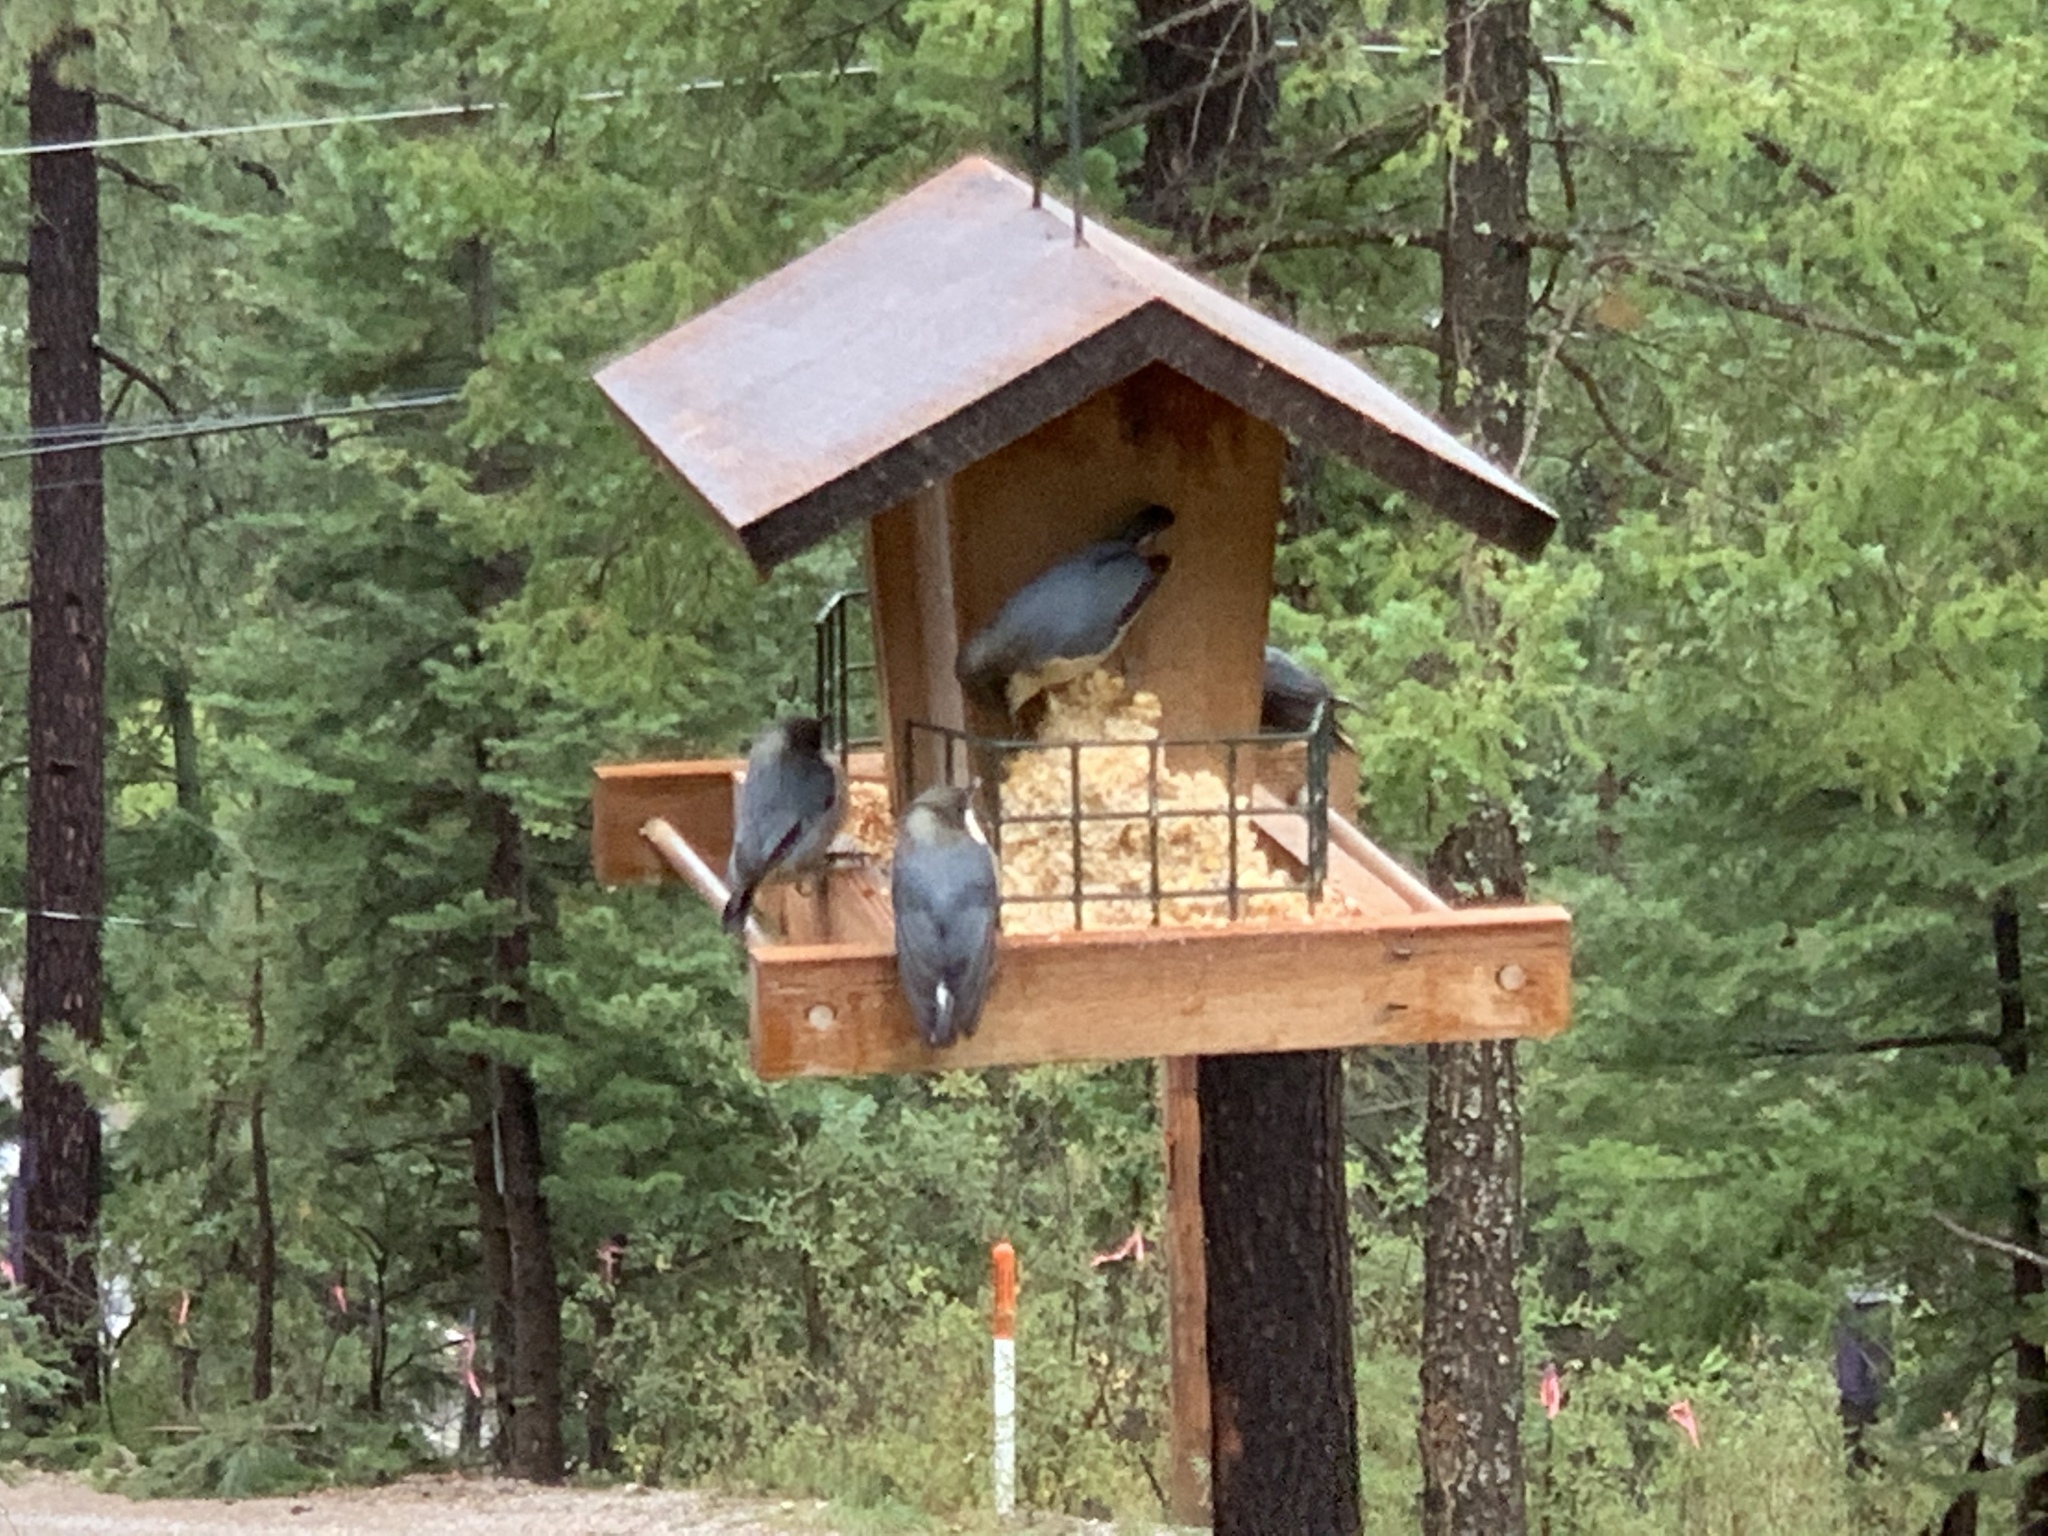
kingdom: Animalia
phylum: Chordata
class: Aves
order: Passeriformes
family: Sittidae
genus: Sitta
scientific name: Sitta pygmaea
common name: Pygmy nuthatch
